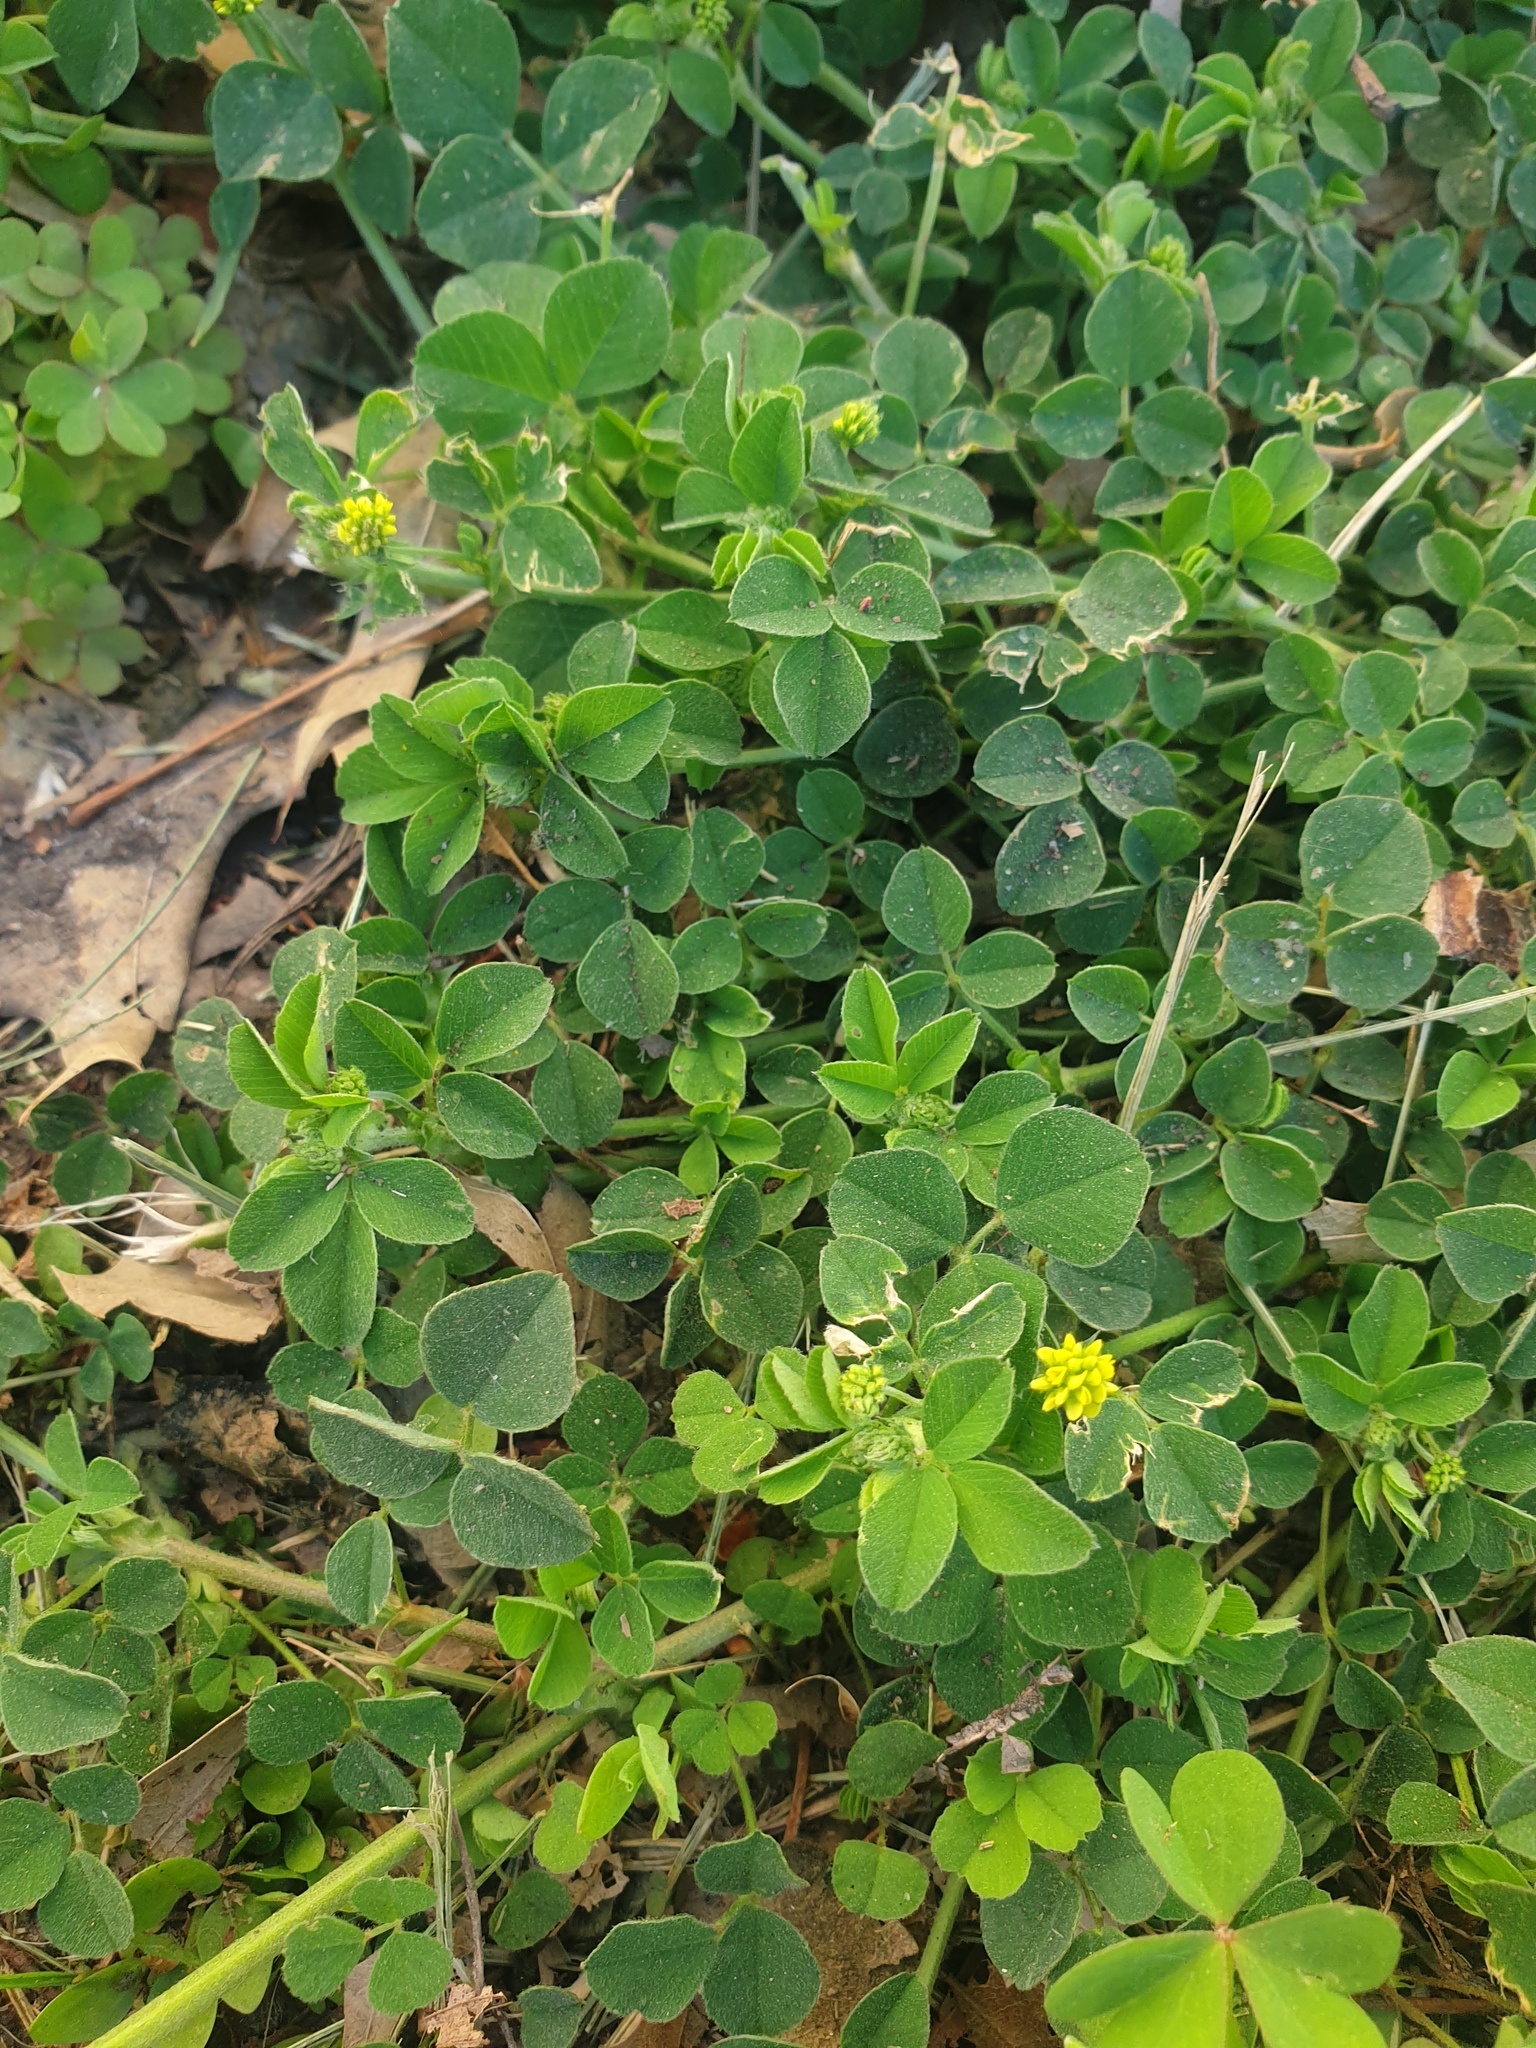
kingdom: Plantae
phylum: Tracheophyta
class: Magnoliopsida
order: Fabales
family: Fabaceae
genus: Medicago
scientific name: Medicago lupulina
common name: Black medick
